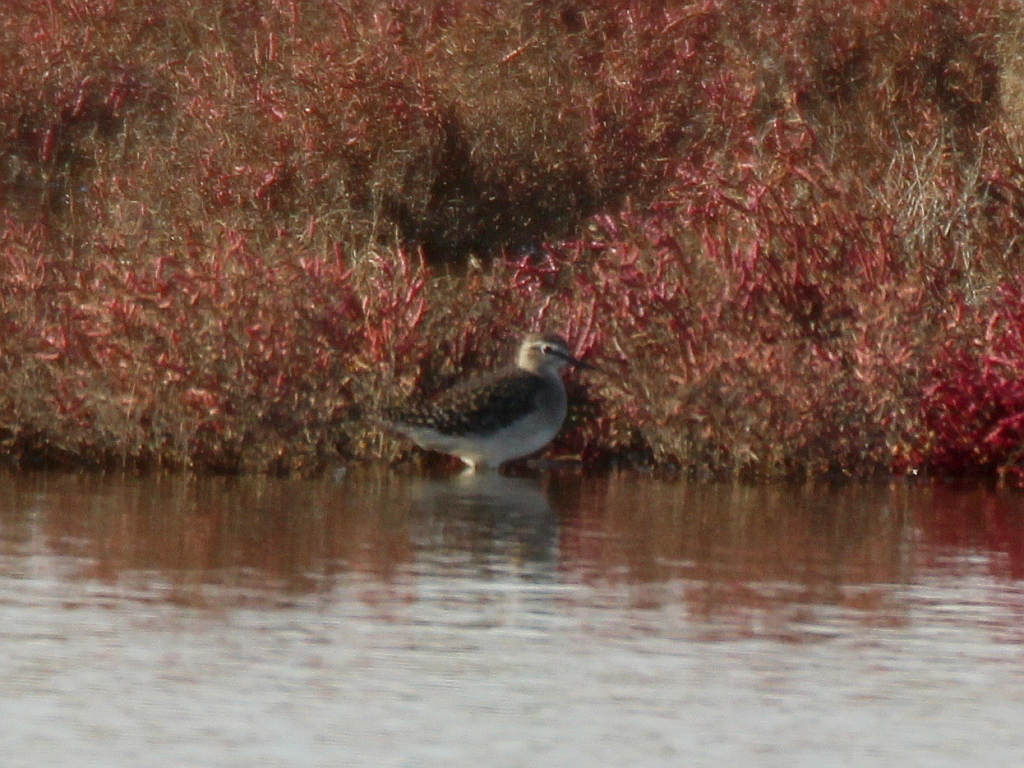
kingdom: Animalia
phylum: Chordata
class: Aves
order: Charadriiformes
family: Scolopacidae
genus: Tringa
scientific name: Tringa glareola
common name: Wood sandpiper
